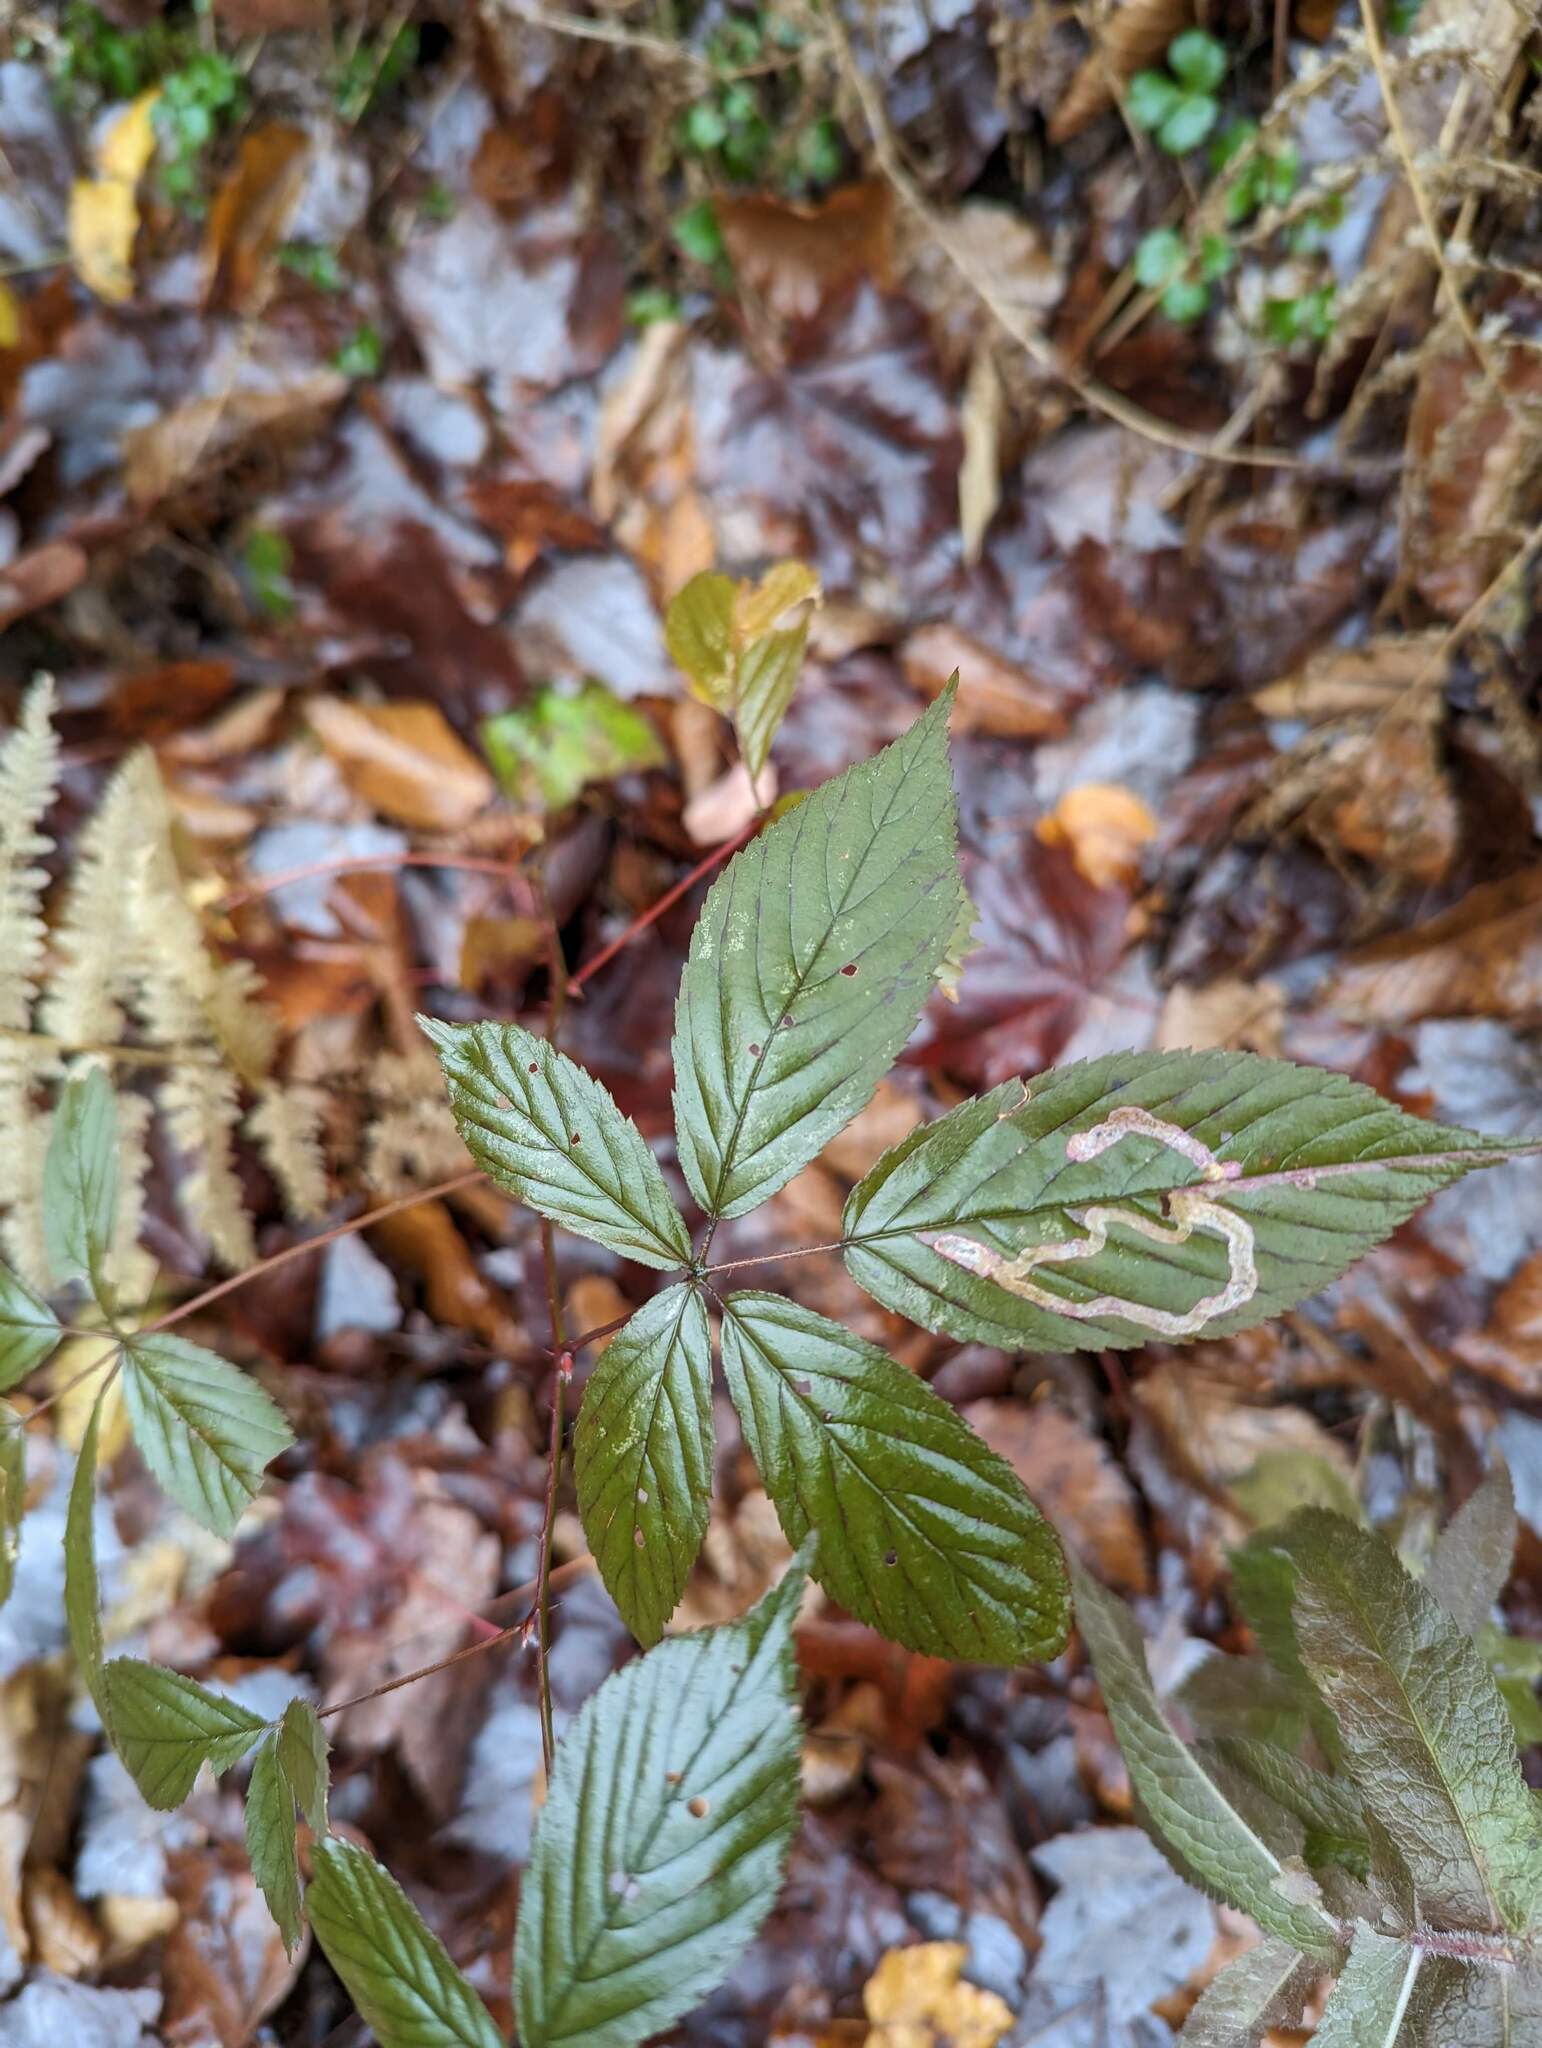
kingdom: Animalia
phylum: Arthropoda
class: Insecta
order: Diptera
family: Agromyzidae
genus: Agromyza
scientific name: Agromyza vockerothi
